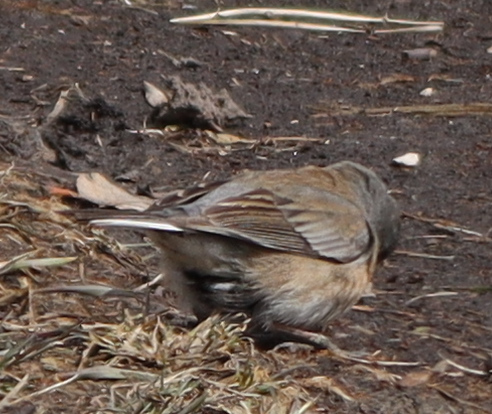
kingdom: Animalia
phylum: Chordata
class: Aves
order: Passeriformes
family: Passerellidae
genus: Junco
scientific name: Junco hyemalis
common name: Dark-eyed junco
